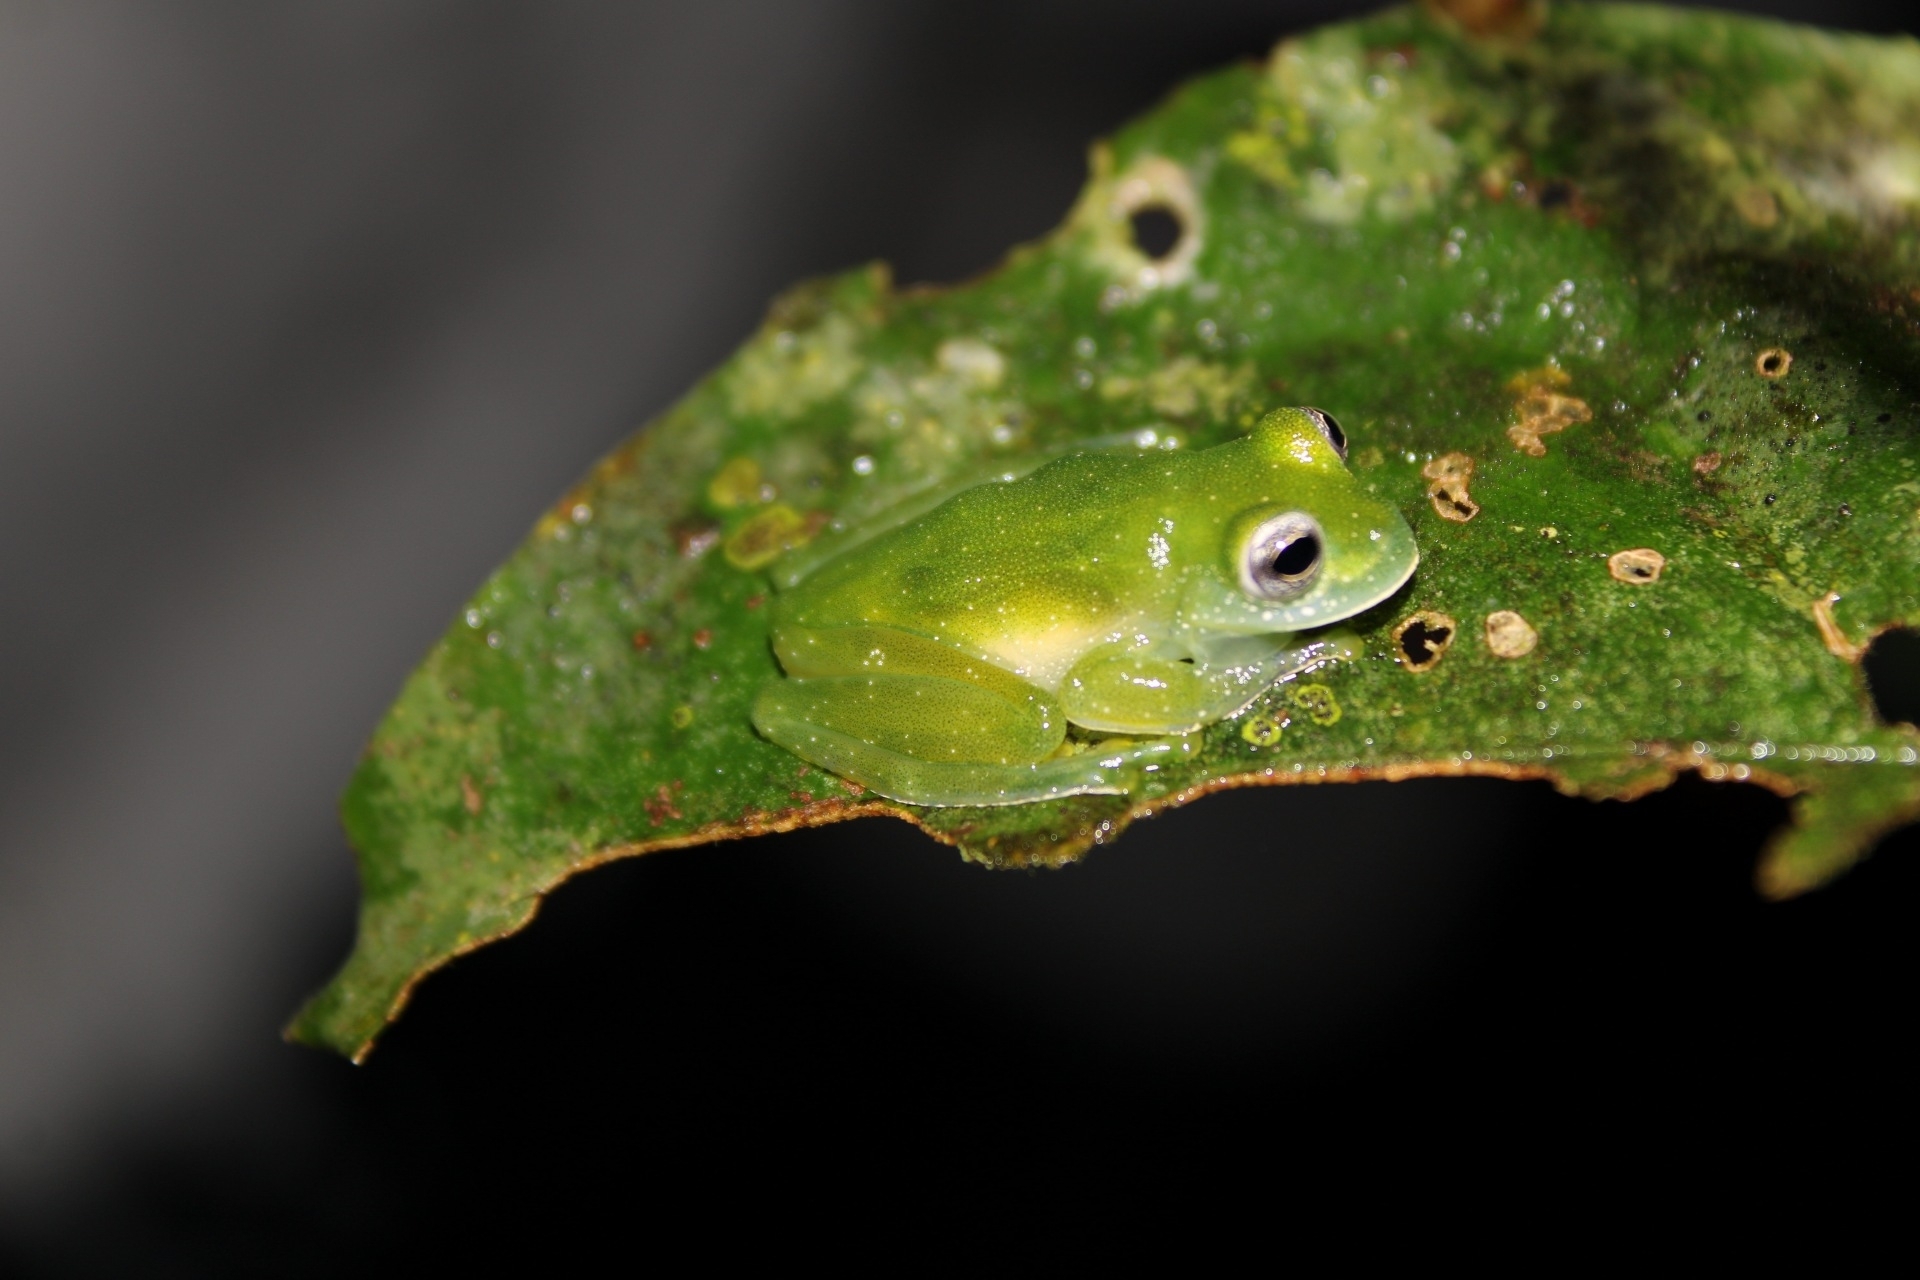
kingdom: Animalia
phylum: Chordata
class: Amphibia
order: Anura
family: Centrolenidae
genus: Teratohyla
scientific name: Teratohyla pulverata
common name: Chiriqui glass frog
